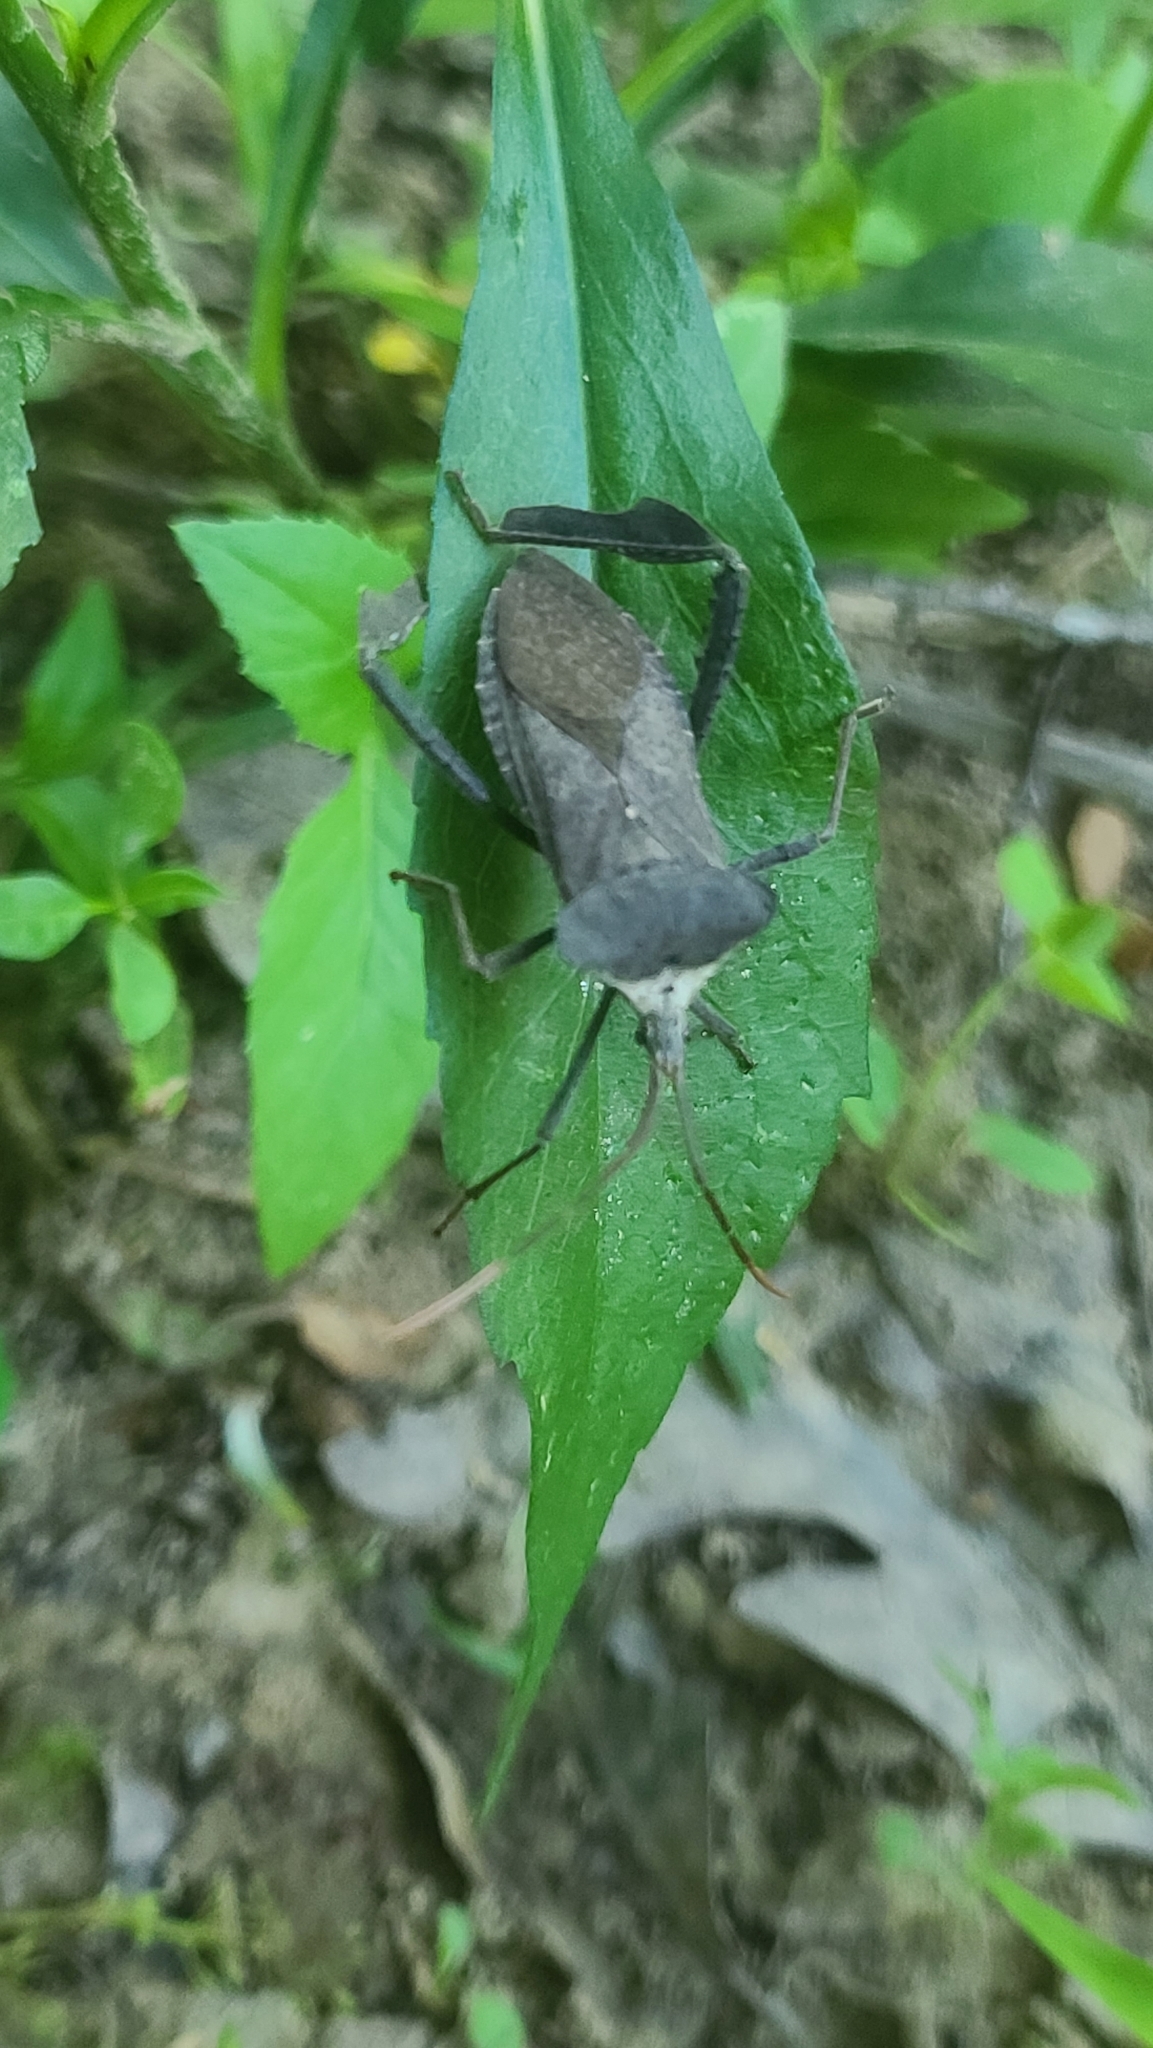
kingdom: Animalia
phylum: Arthropoda
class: Insecta
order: Hemiptera
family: Coreidae
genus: Acanthocephala
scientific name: Acanthocephala declivis
